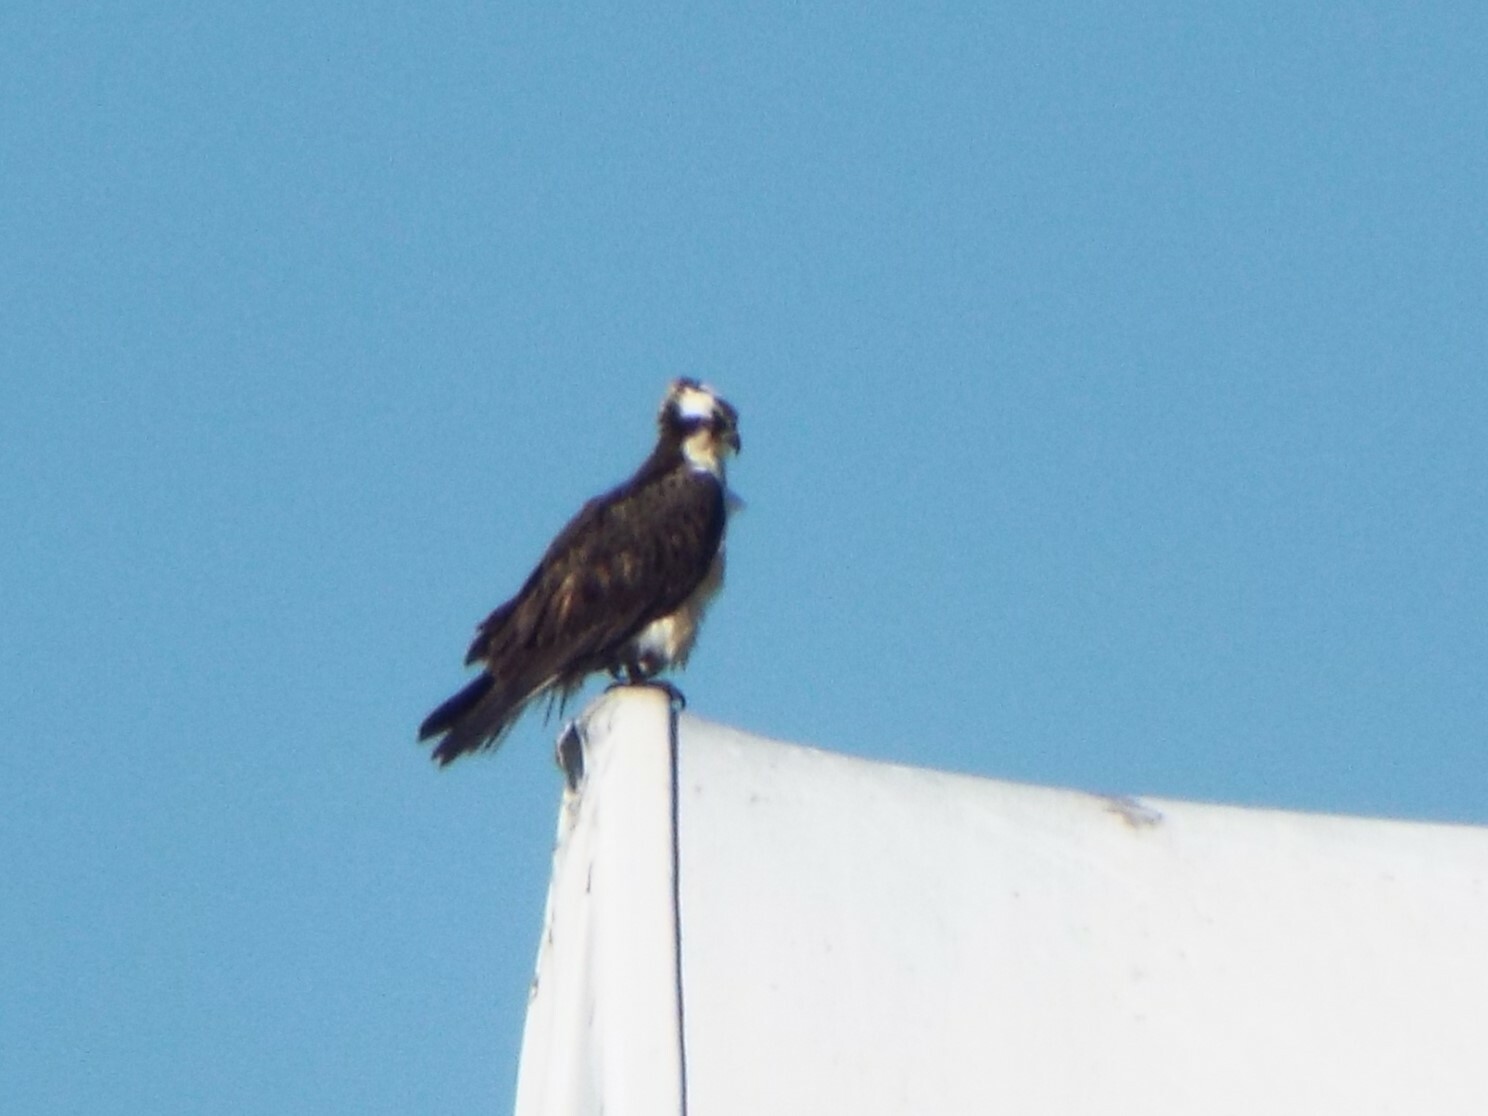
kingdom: Animalia
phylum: Chordata
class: Aves
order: Accipitriformes
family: Pandionidae
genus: Pandion
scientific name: Pandion haliaetus
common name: Osprey
